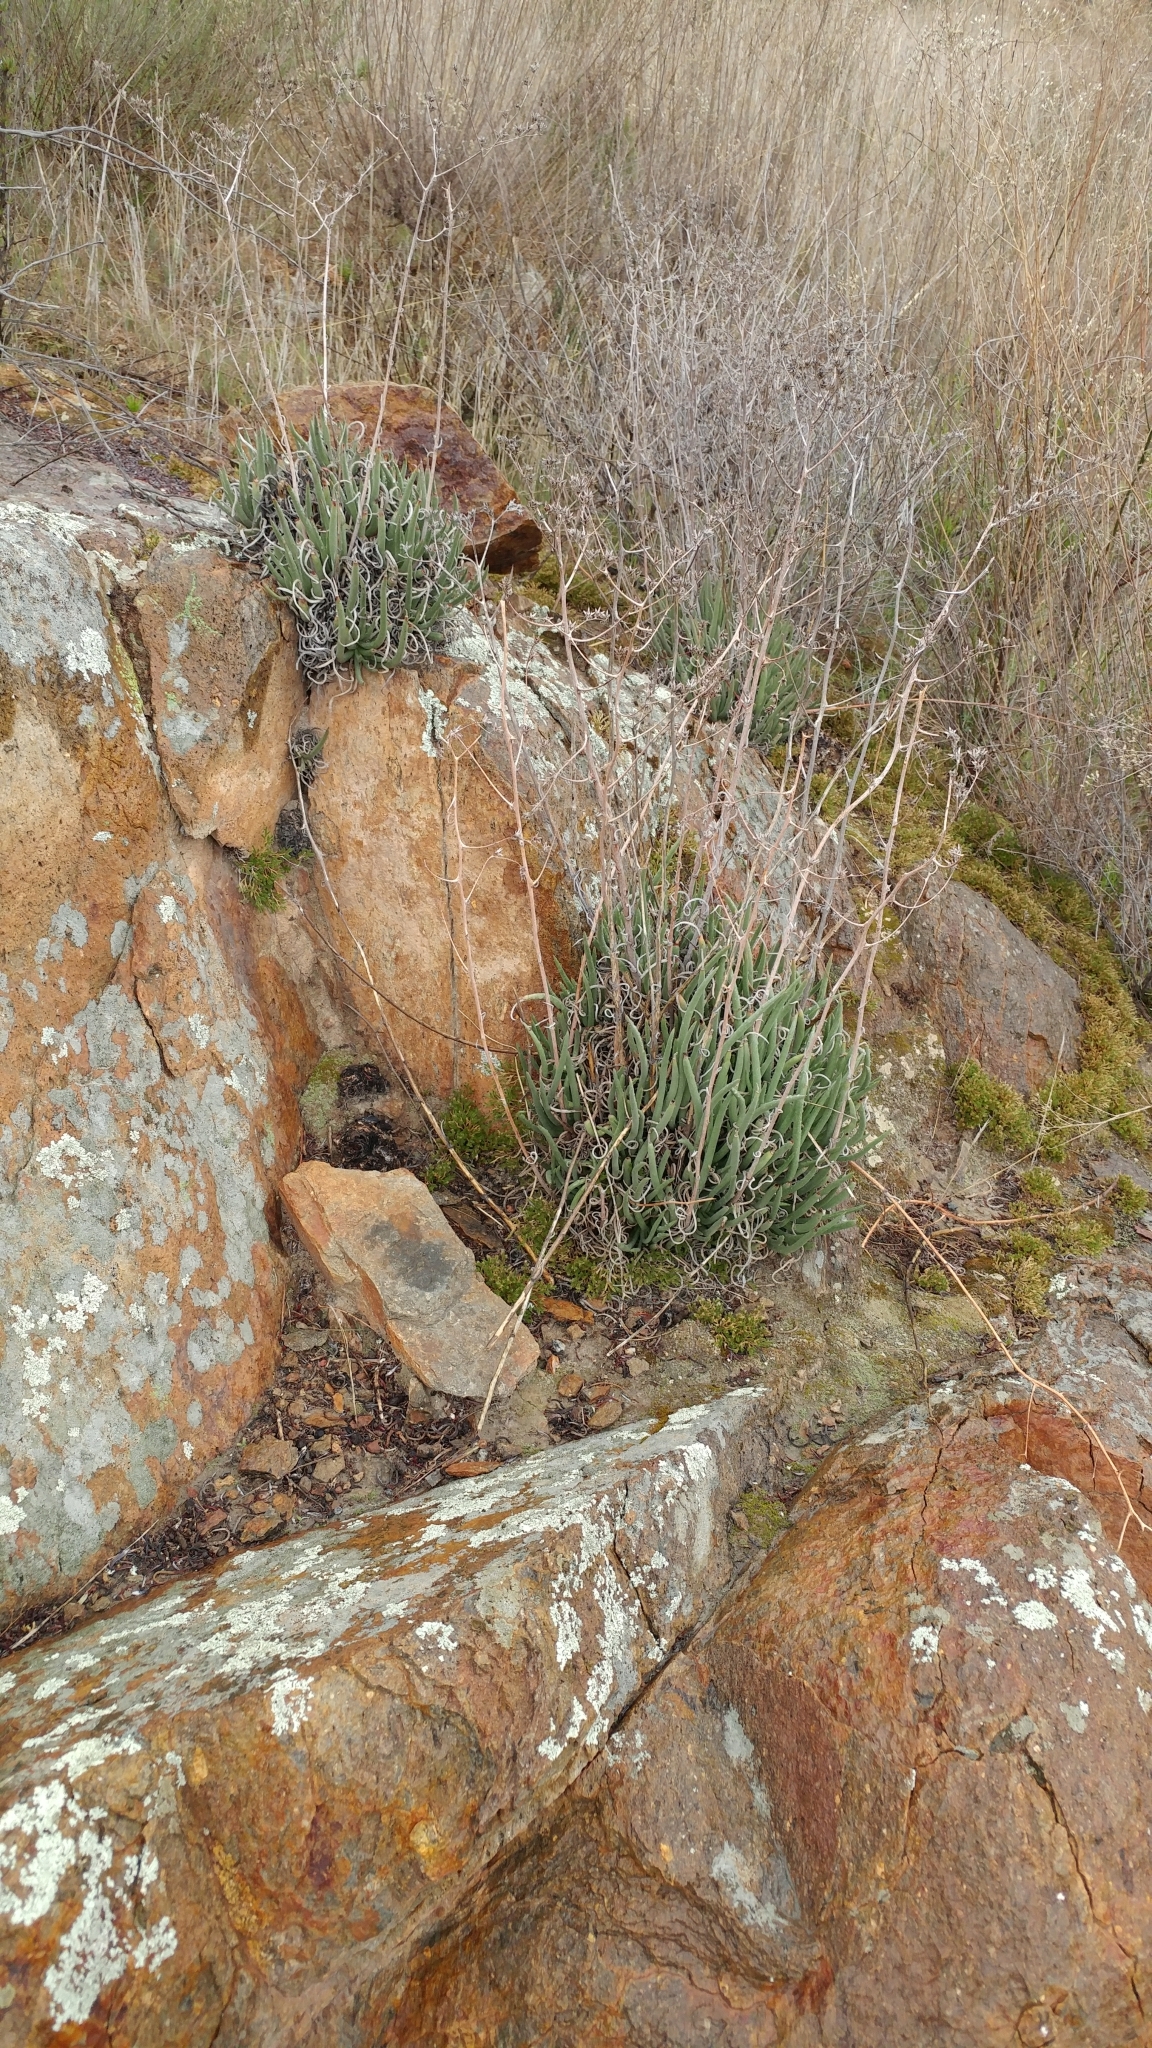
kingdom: Plantae
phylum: Tracheophyta
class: Magnoliopsida
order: Saxifragales
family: Crassulaceae
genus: Dudleya
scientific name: Dudleya edulis
